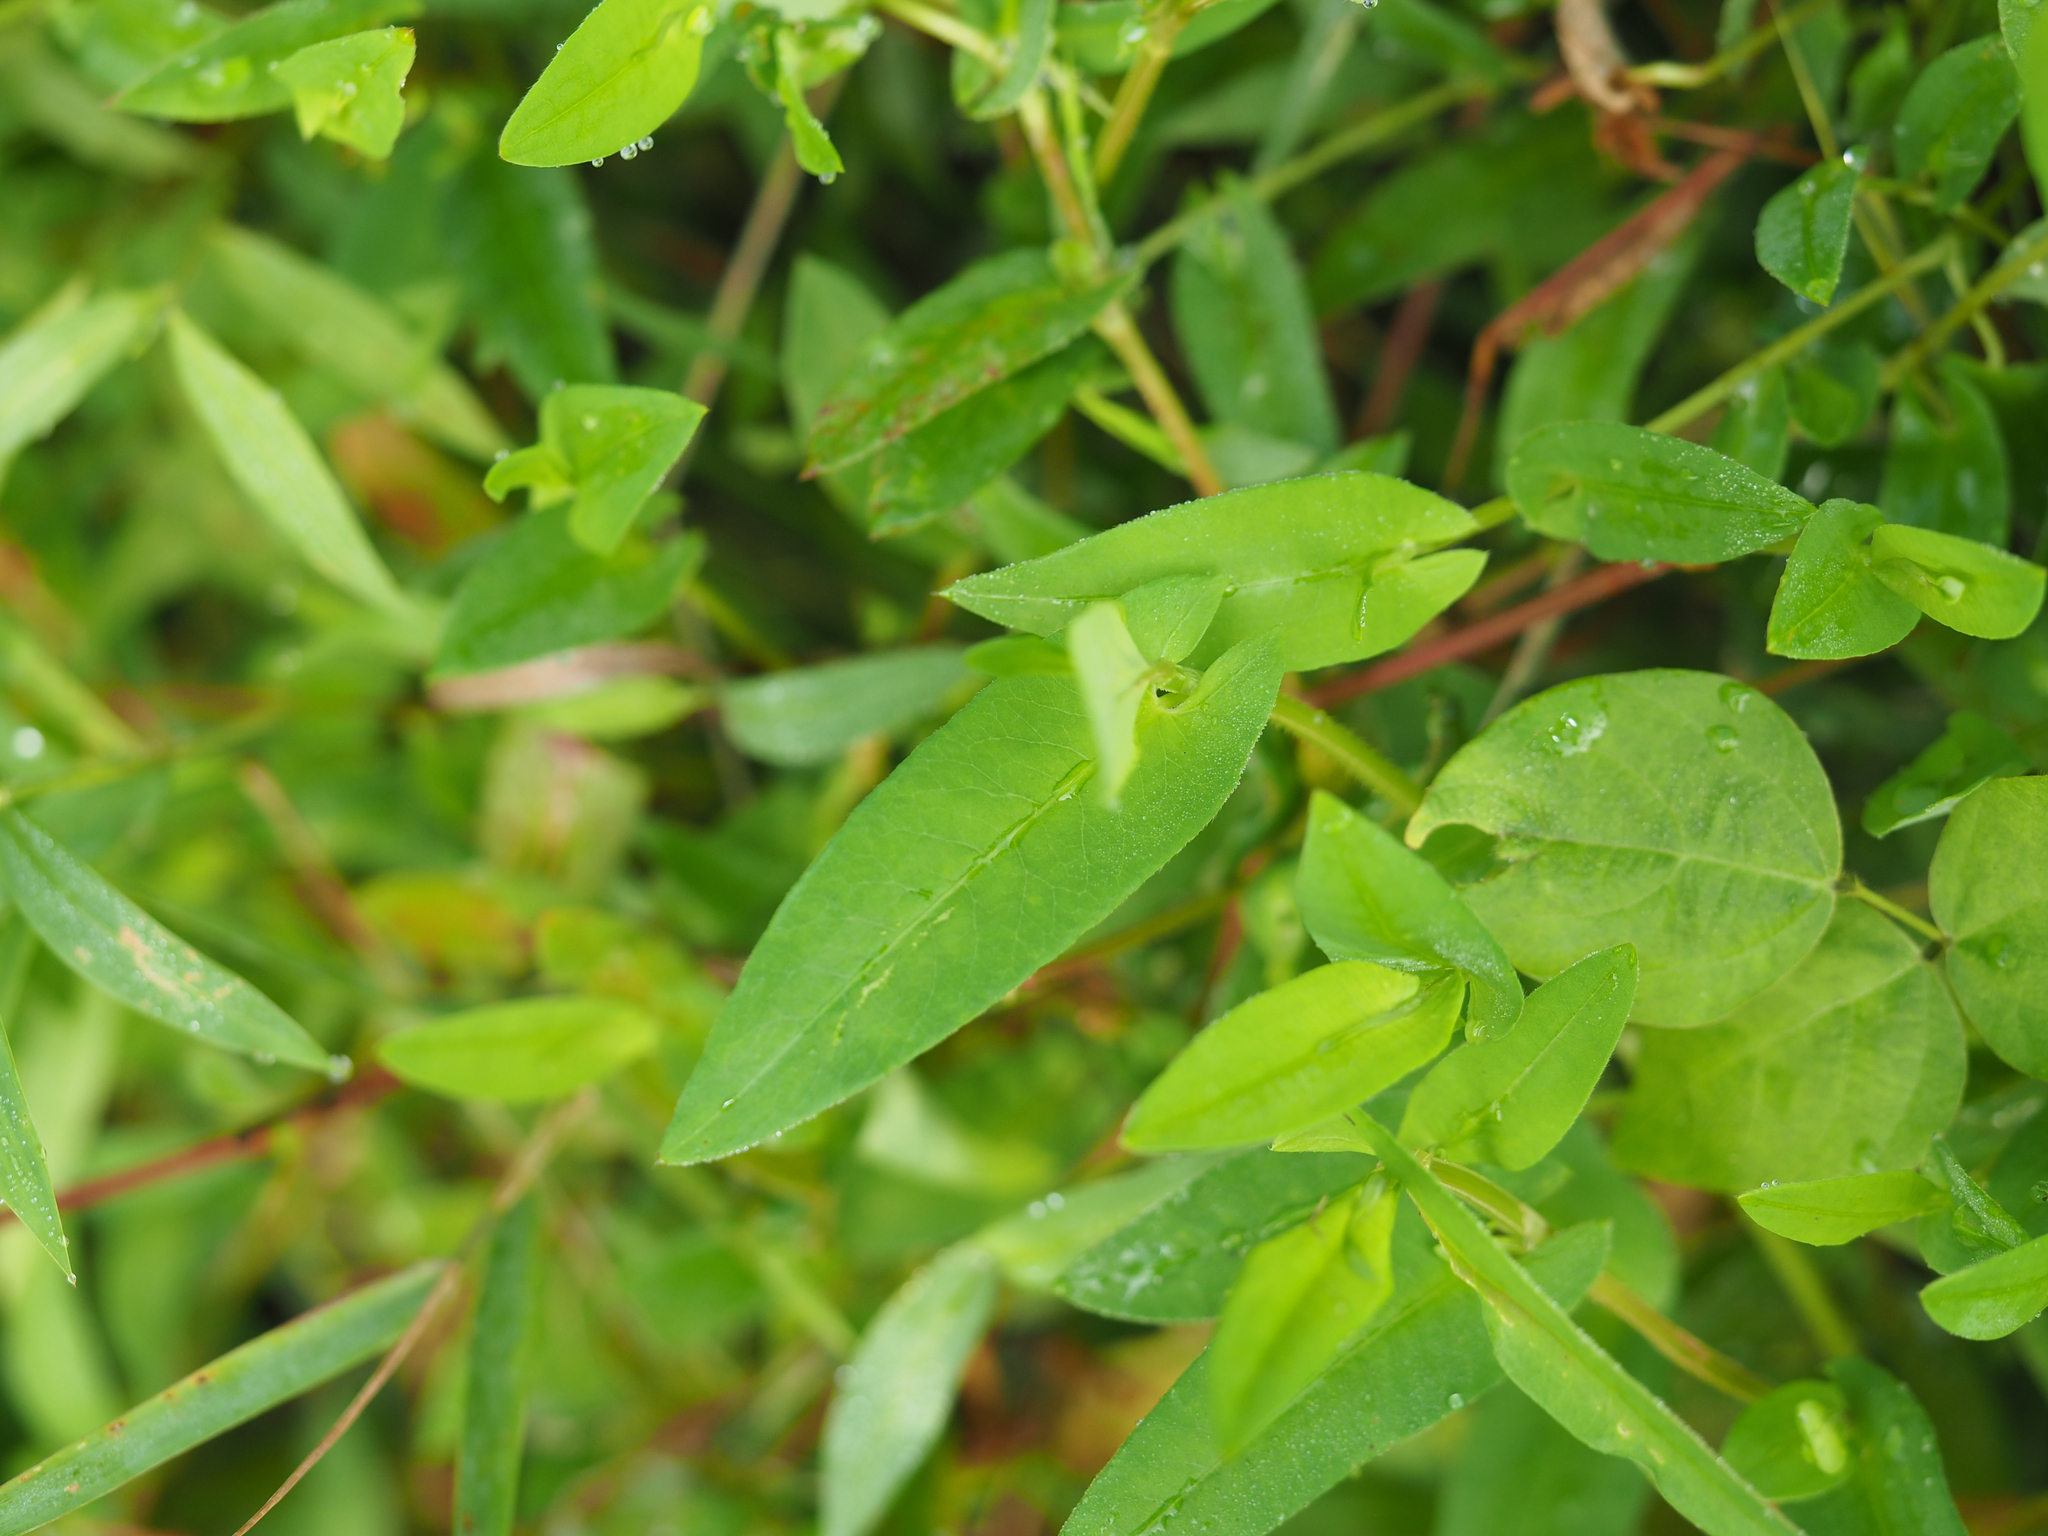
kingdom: Plantae
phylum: Tracheophyta
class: Magnoliopsida
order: Caryophyllales
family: Polygonaceae
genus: Persicaria
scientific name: Persicaria sagittata
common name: American tearthumb
